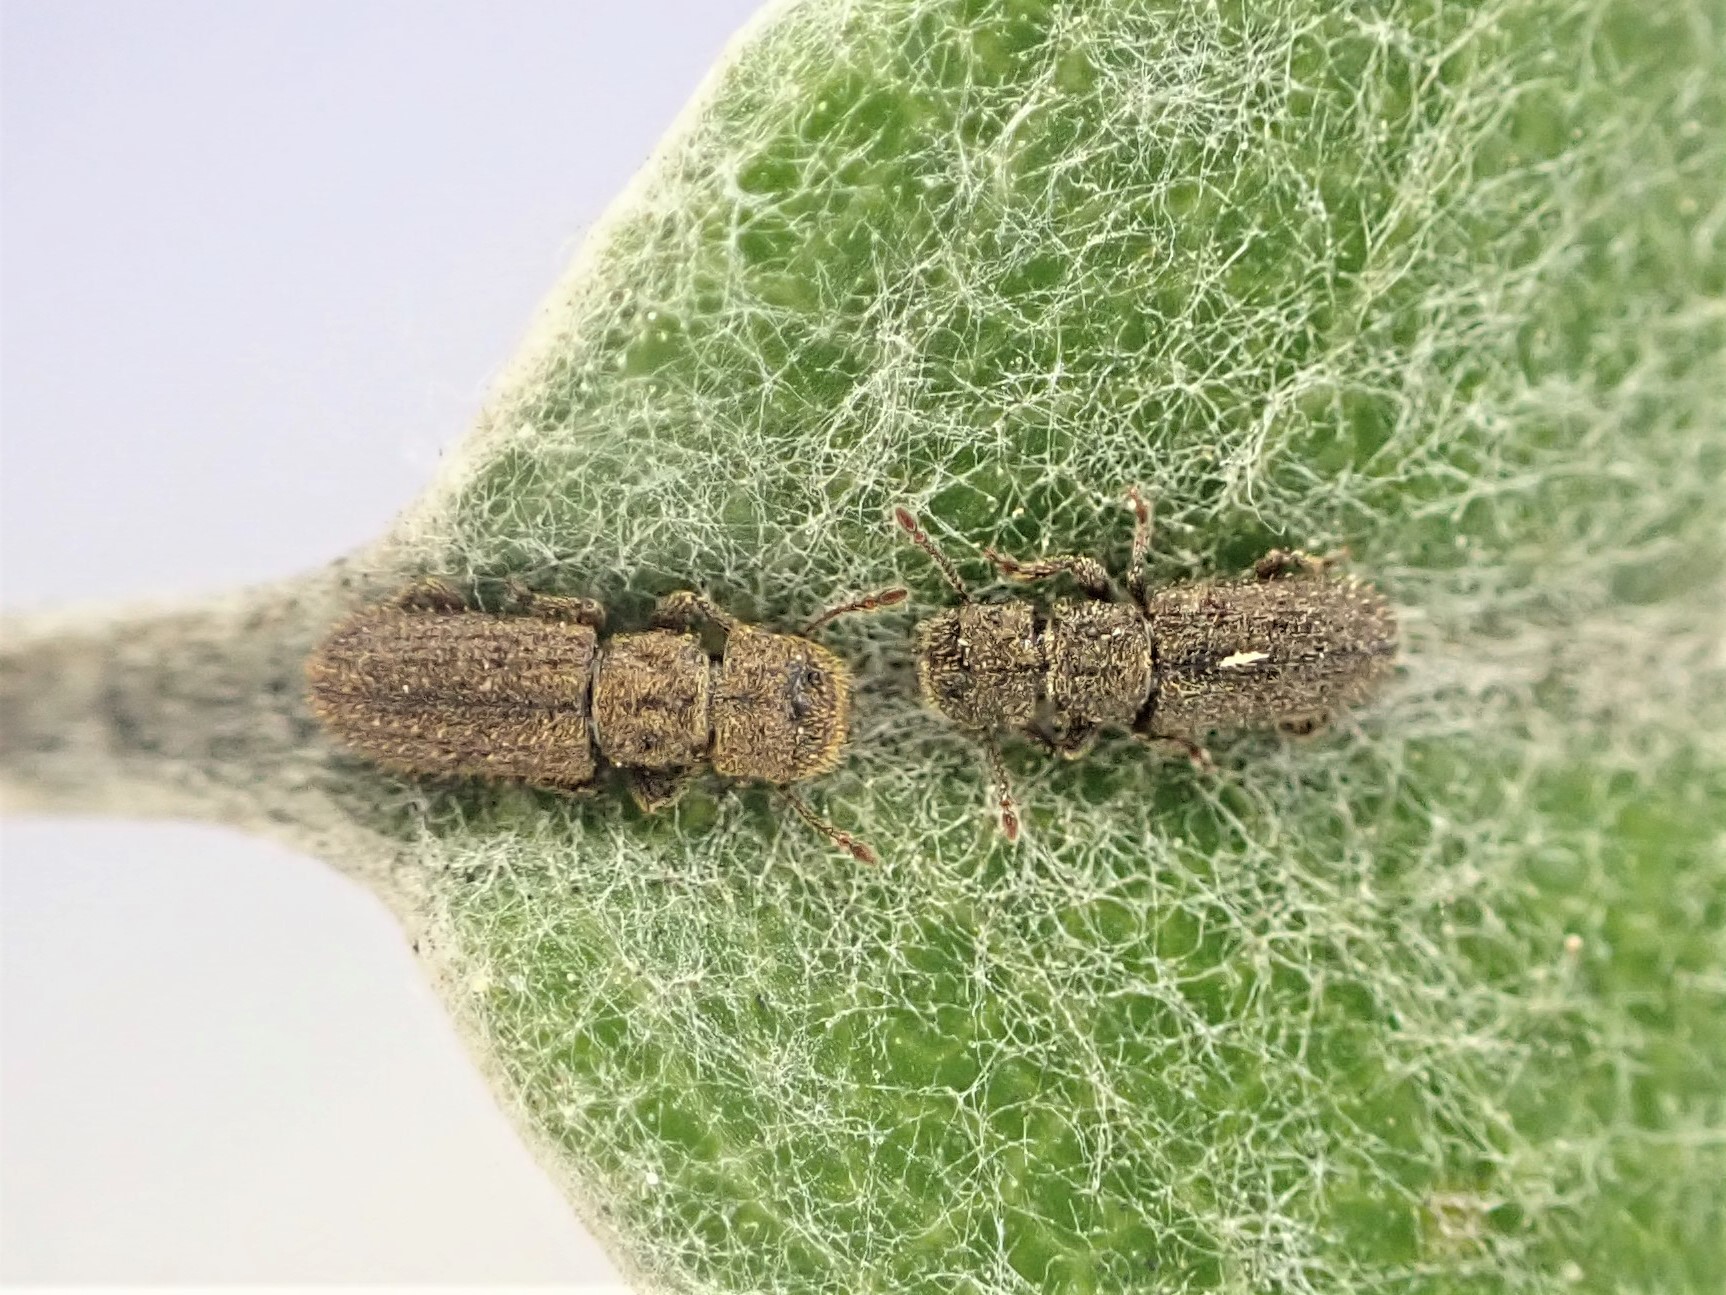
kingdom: Animalia
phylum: Arthropoda
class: Insecta
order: Coleoptera
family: Belidae
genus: Aralius
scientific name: Aralius wollastoni
